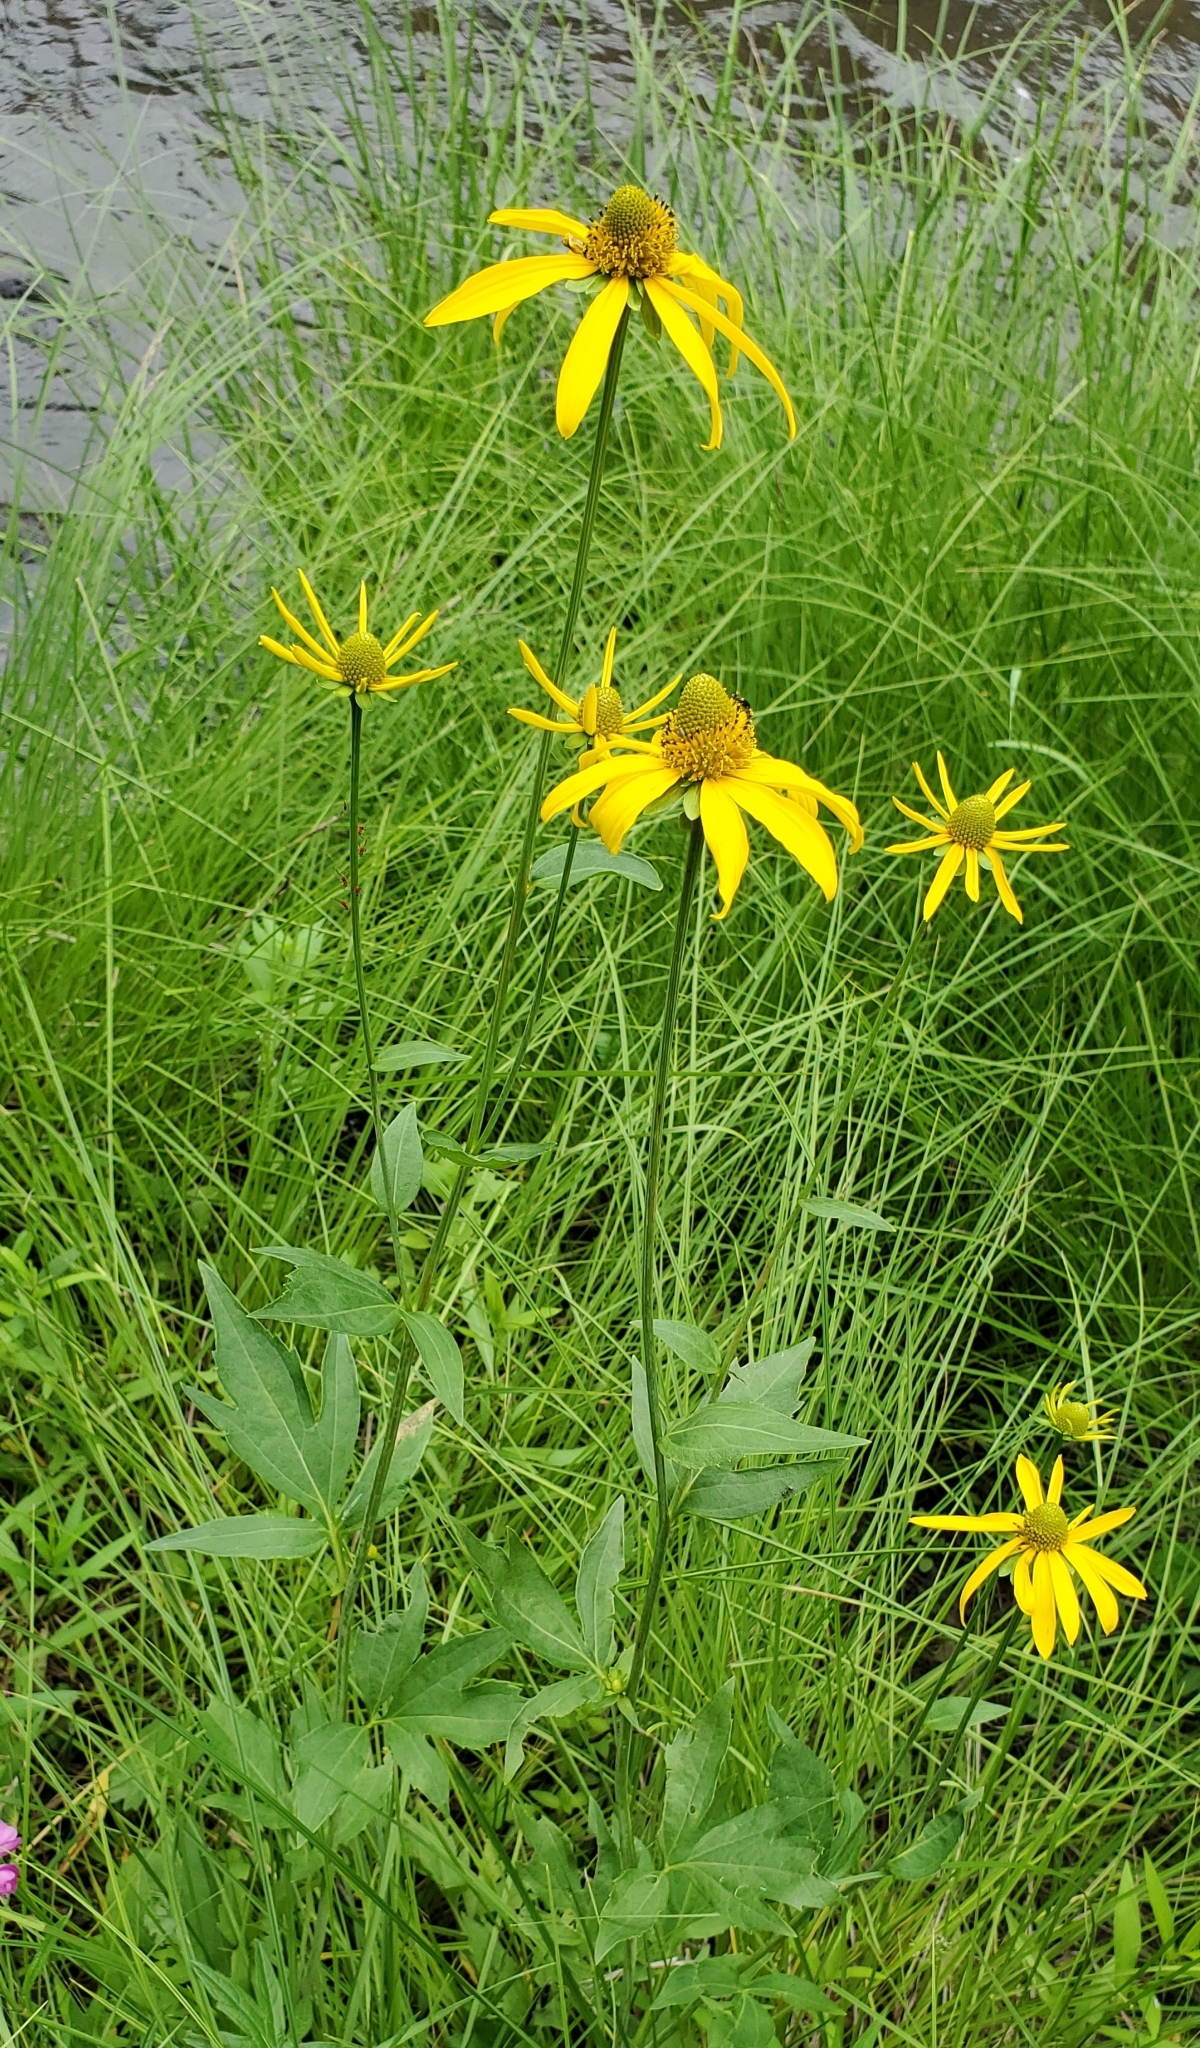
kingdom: Plantae
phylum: Tracheophyta
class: Magnoliopsida
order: Asterales
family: Asteraceae
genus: Rudbeckia
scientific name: Rudbeckia laciniata
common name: Coneflower
